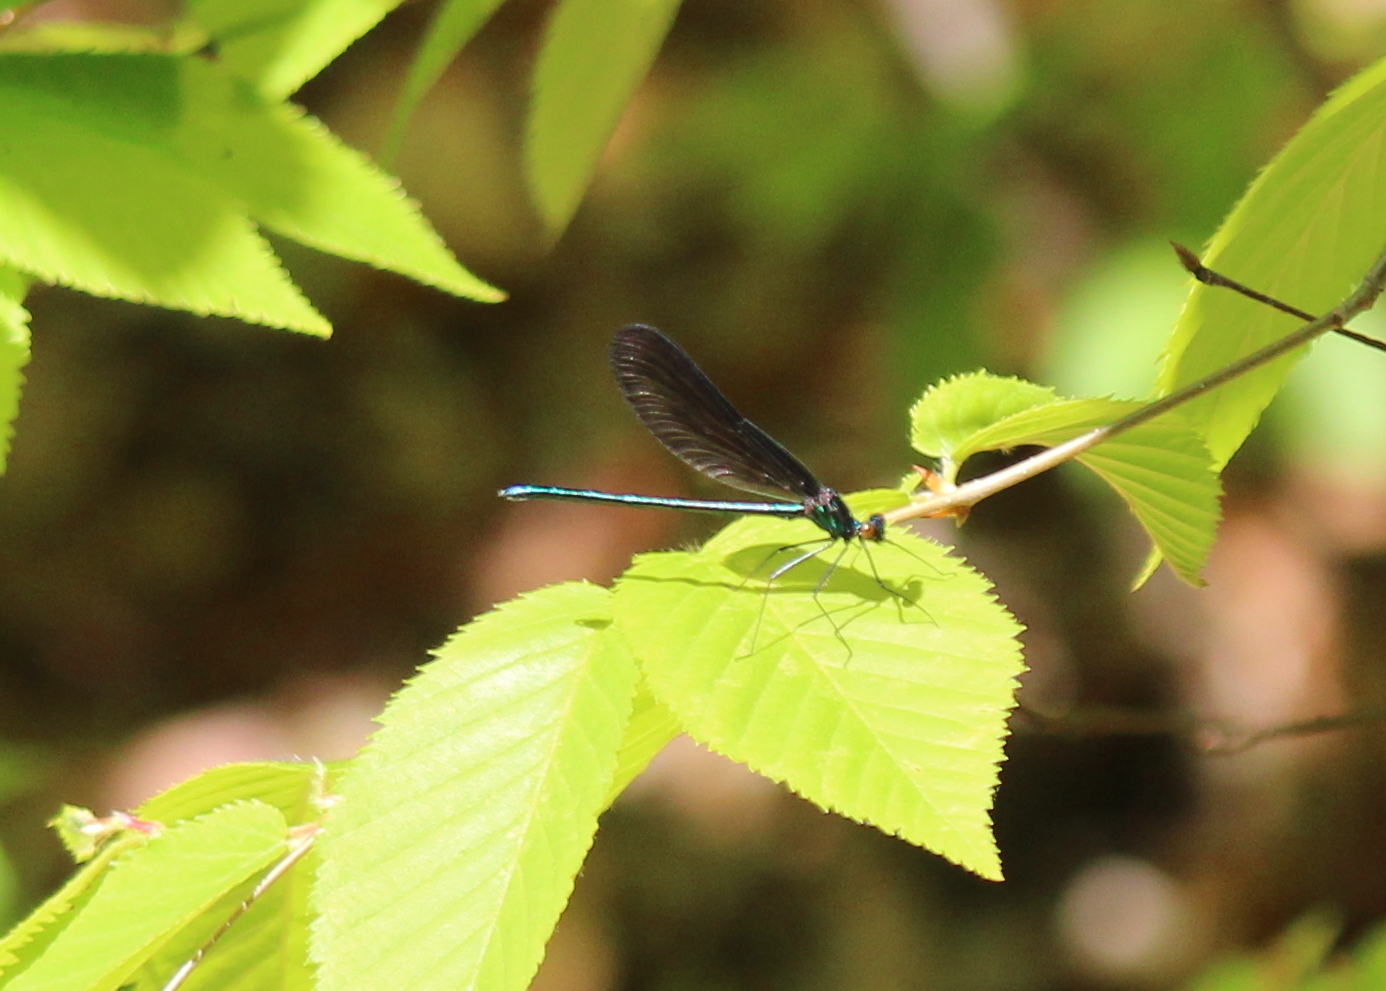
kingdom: Animalia
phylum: Arthropoda
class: Insecta
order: Odonata
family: Calopterygidae
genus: Calopteryx
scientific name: Calopteryx maculata
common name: Ebony jewelwing
